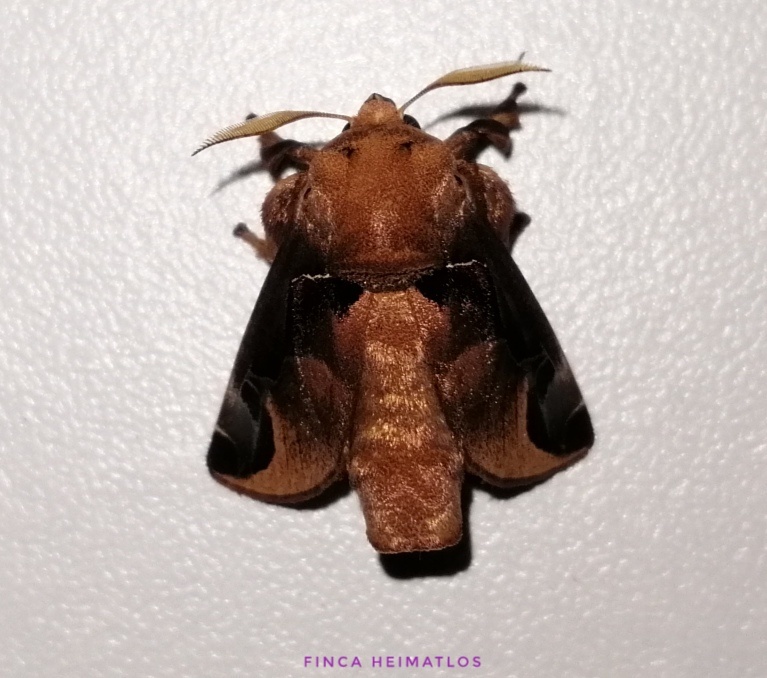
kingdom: Animalia
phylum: Arthropoda
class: Insecta
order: Lepidoptera
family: Limacodidae
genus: Semyra
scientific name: Semyra bella
